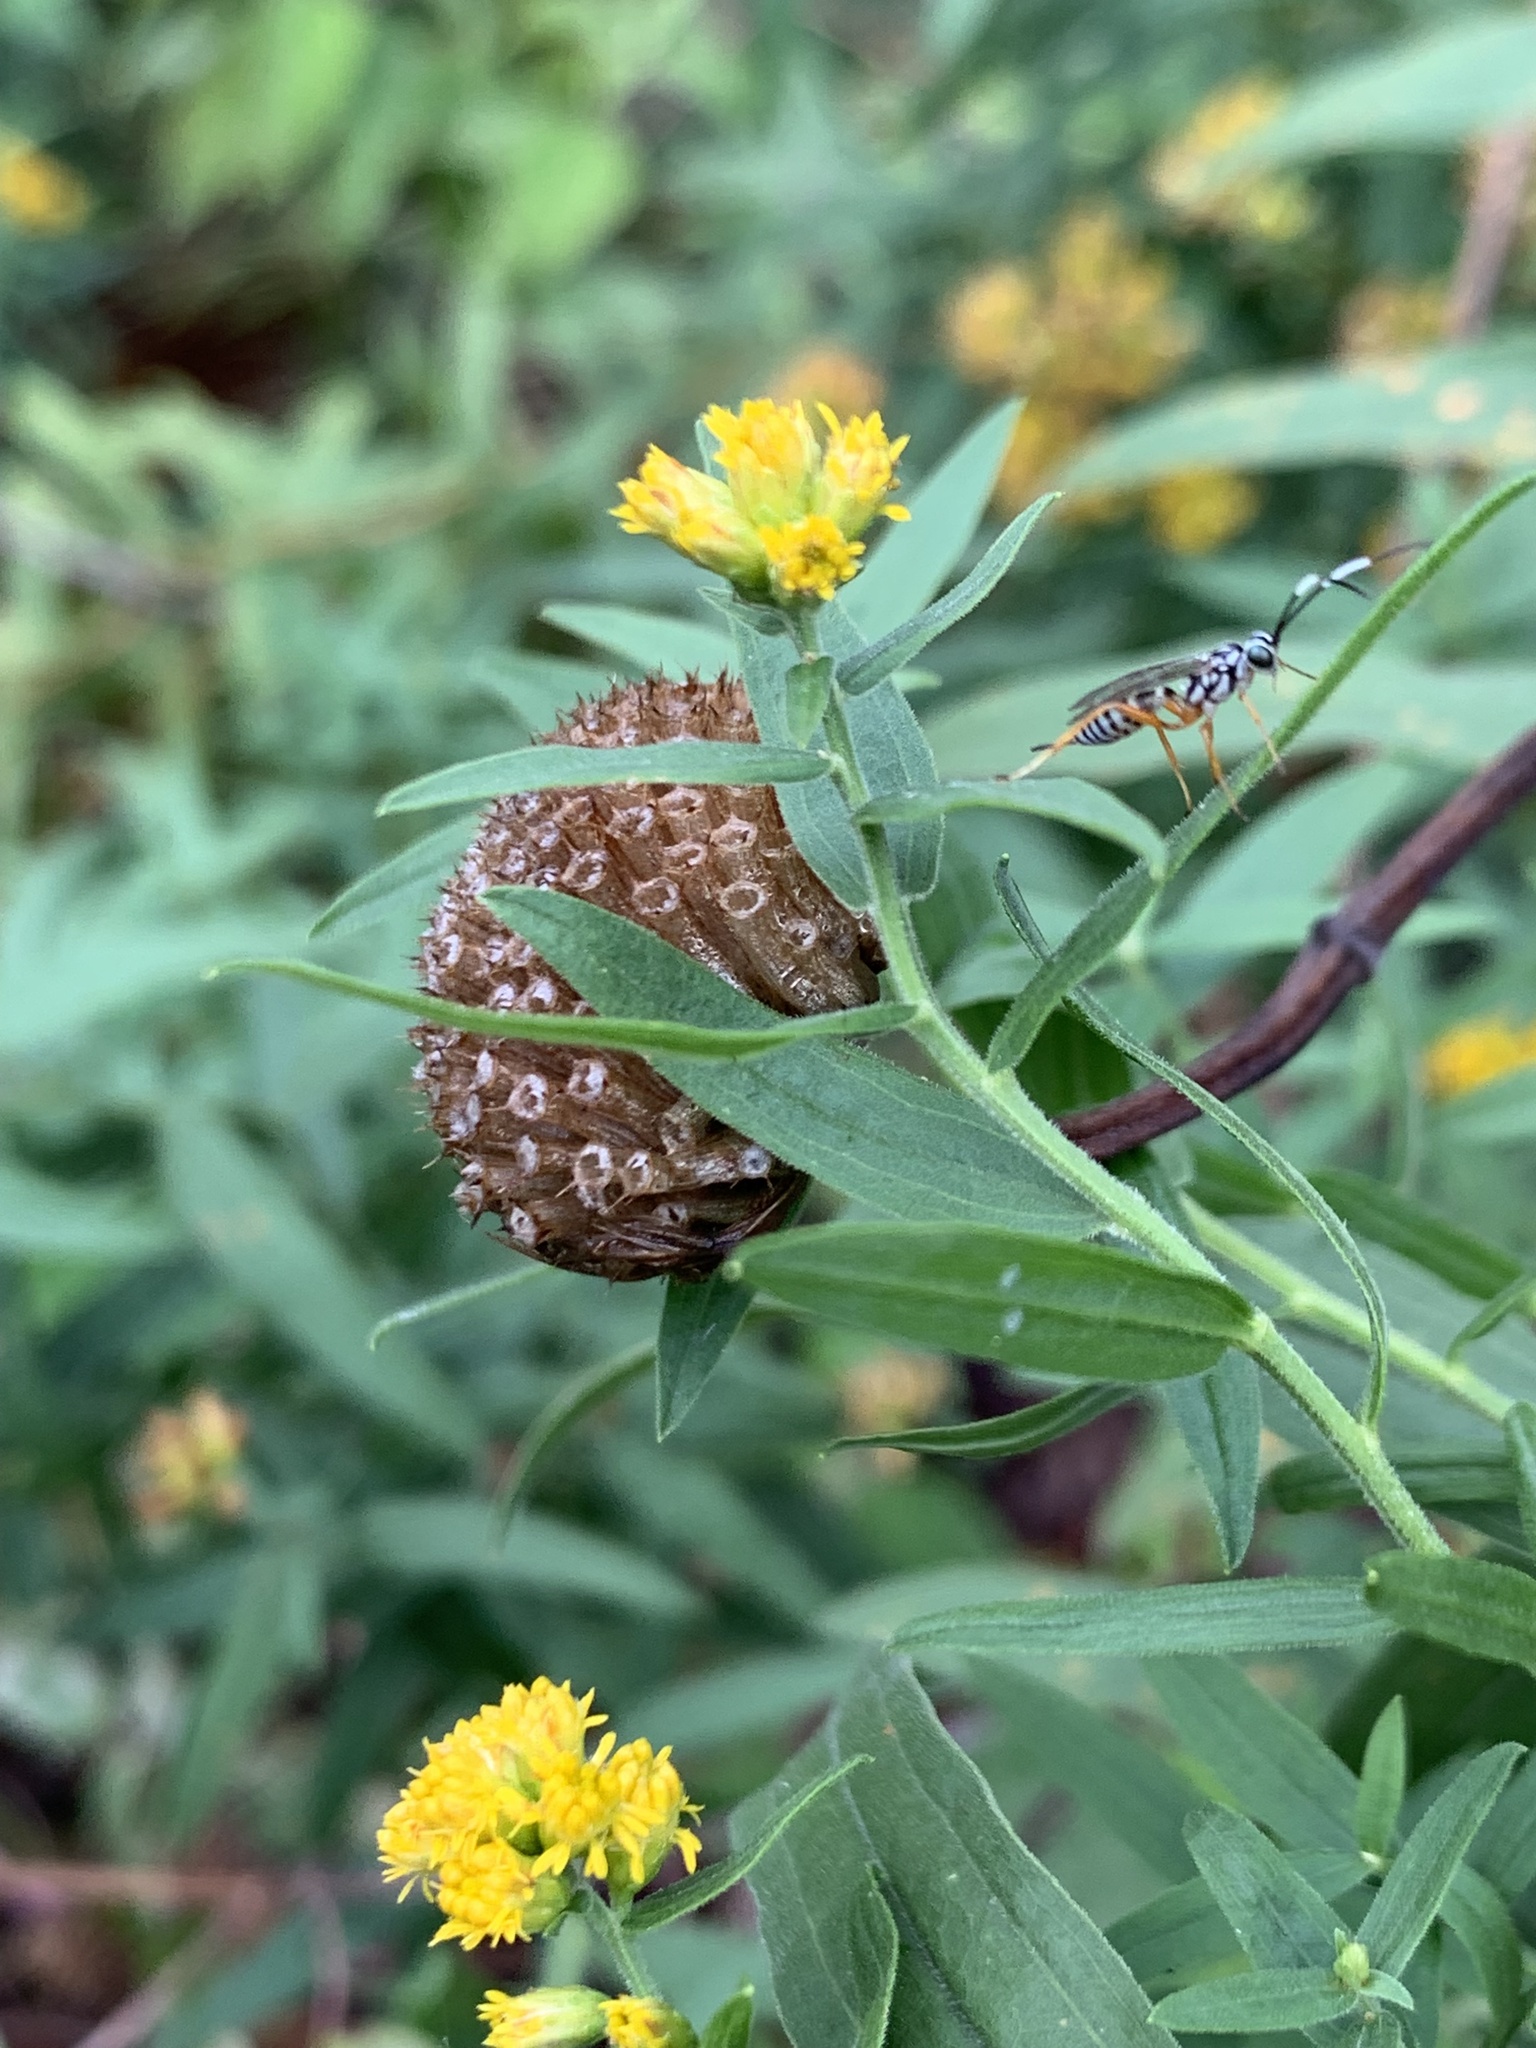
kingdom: Animalia
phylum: Arthropoda
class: Insecta
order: Hymenoptera
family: Ichneumonidae
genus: Lymeon
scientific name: Lymeon orbus
